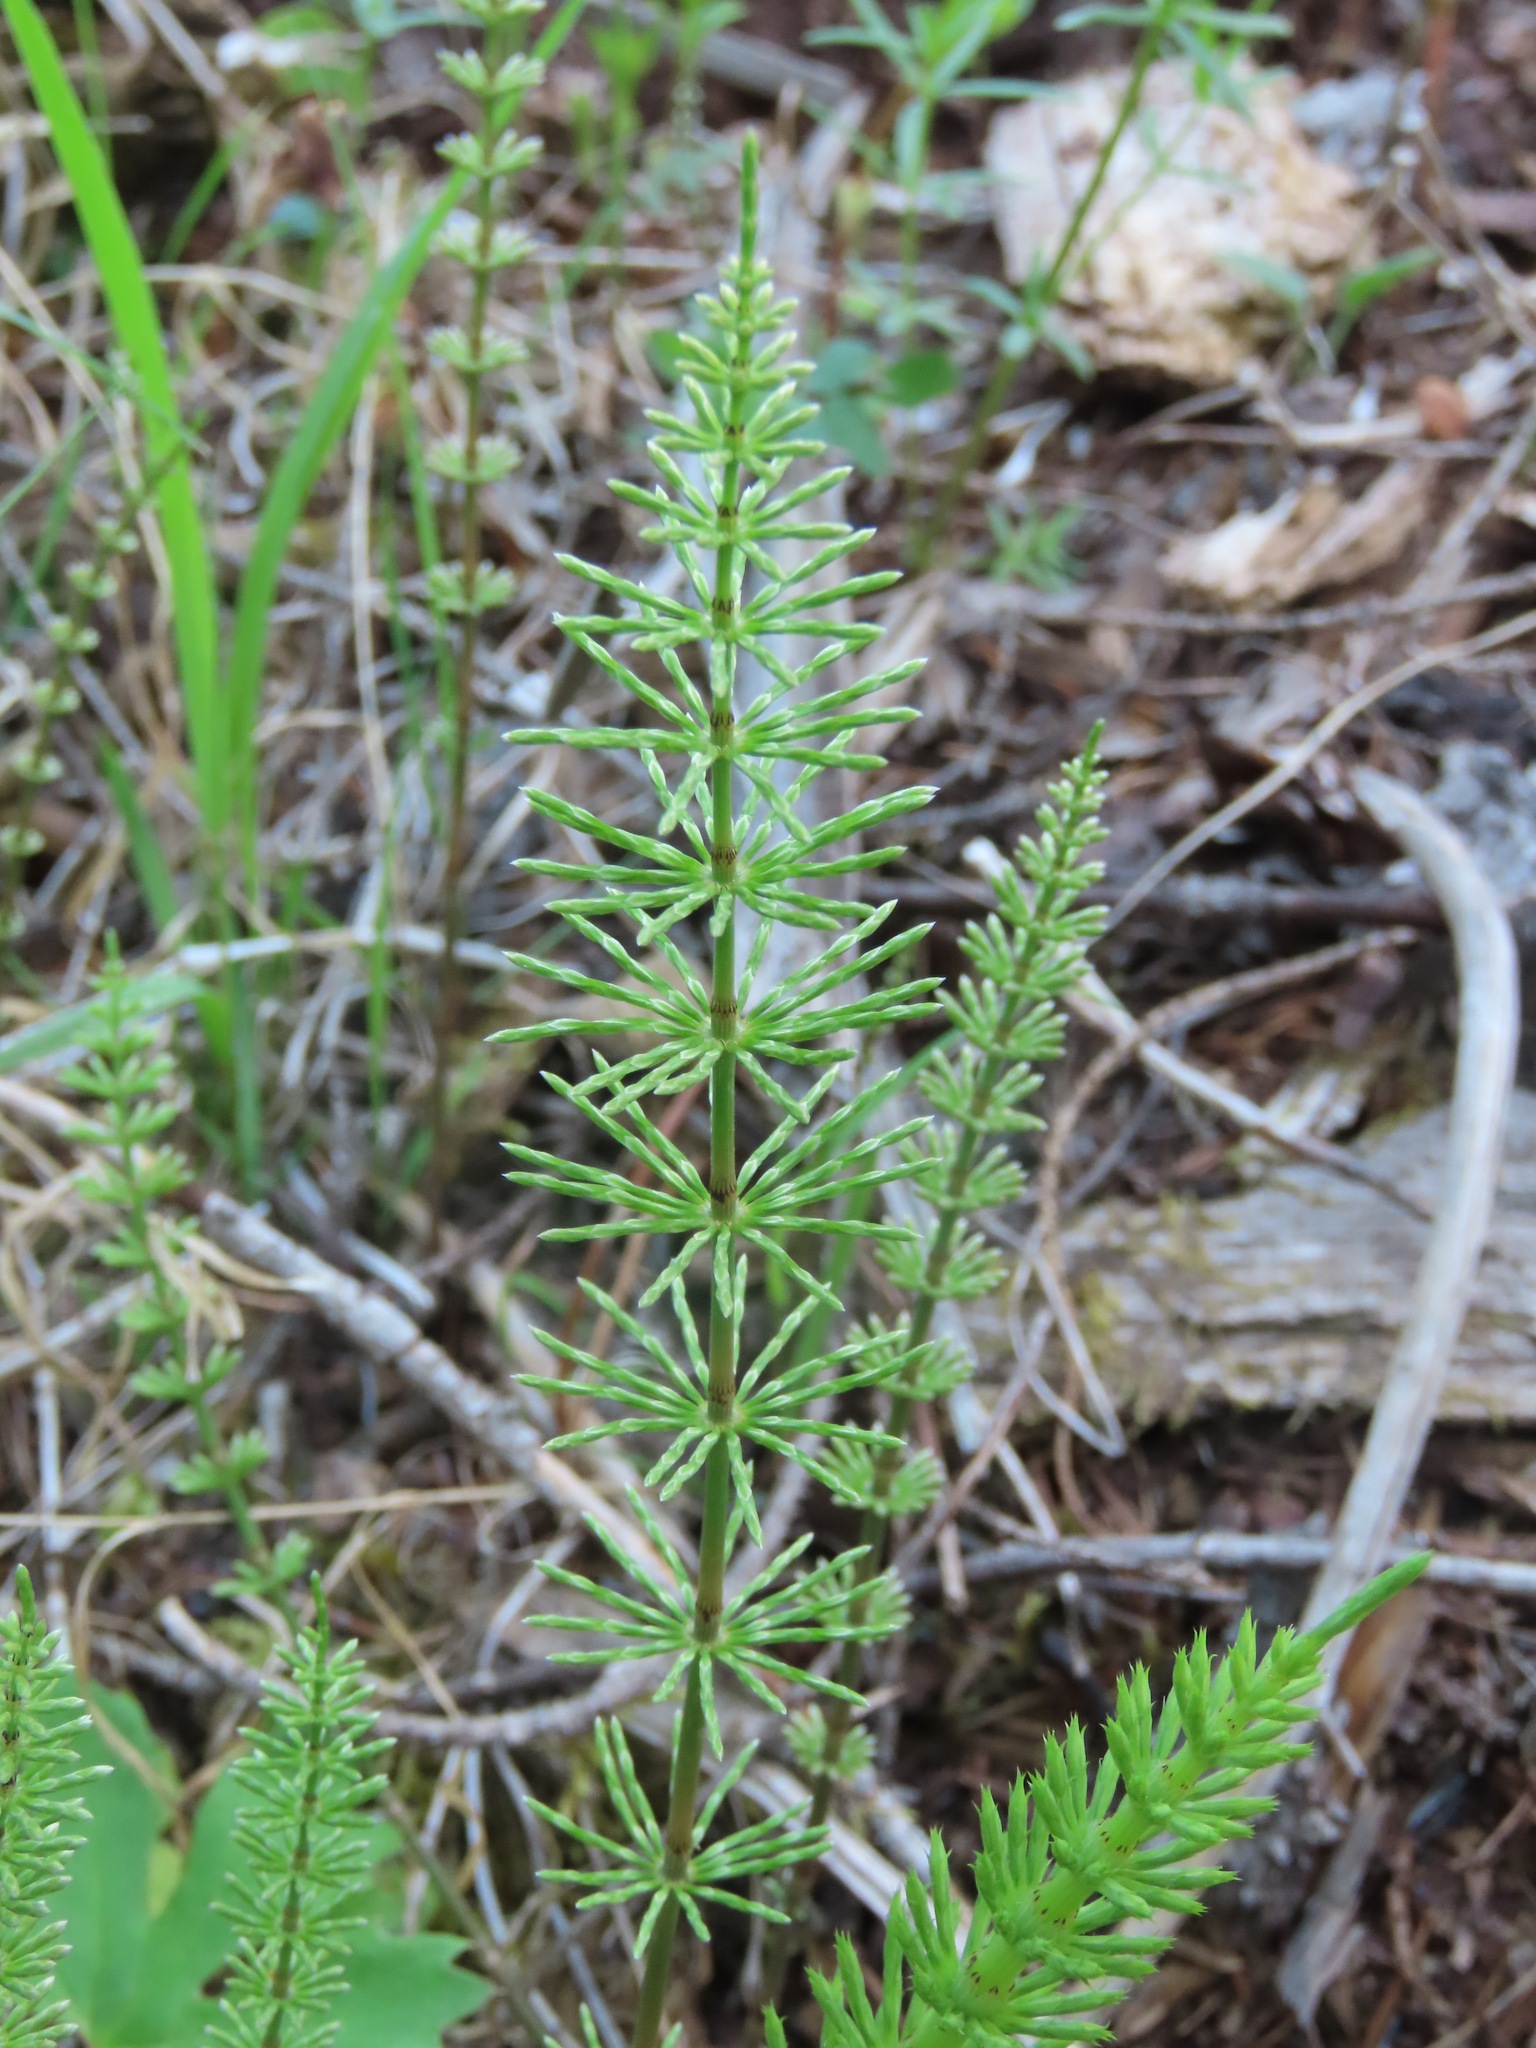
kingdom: Plantae
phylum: Tracheophyta
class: Polypodiopsida
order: Equisetales
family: Equisetaceae
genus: Equisetum
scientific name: Equisetum arvense
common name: Field horsetail
